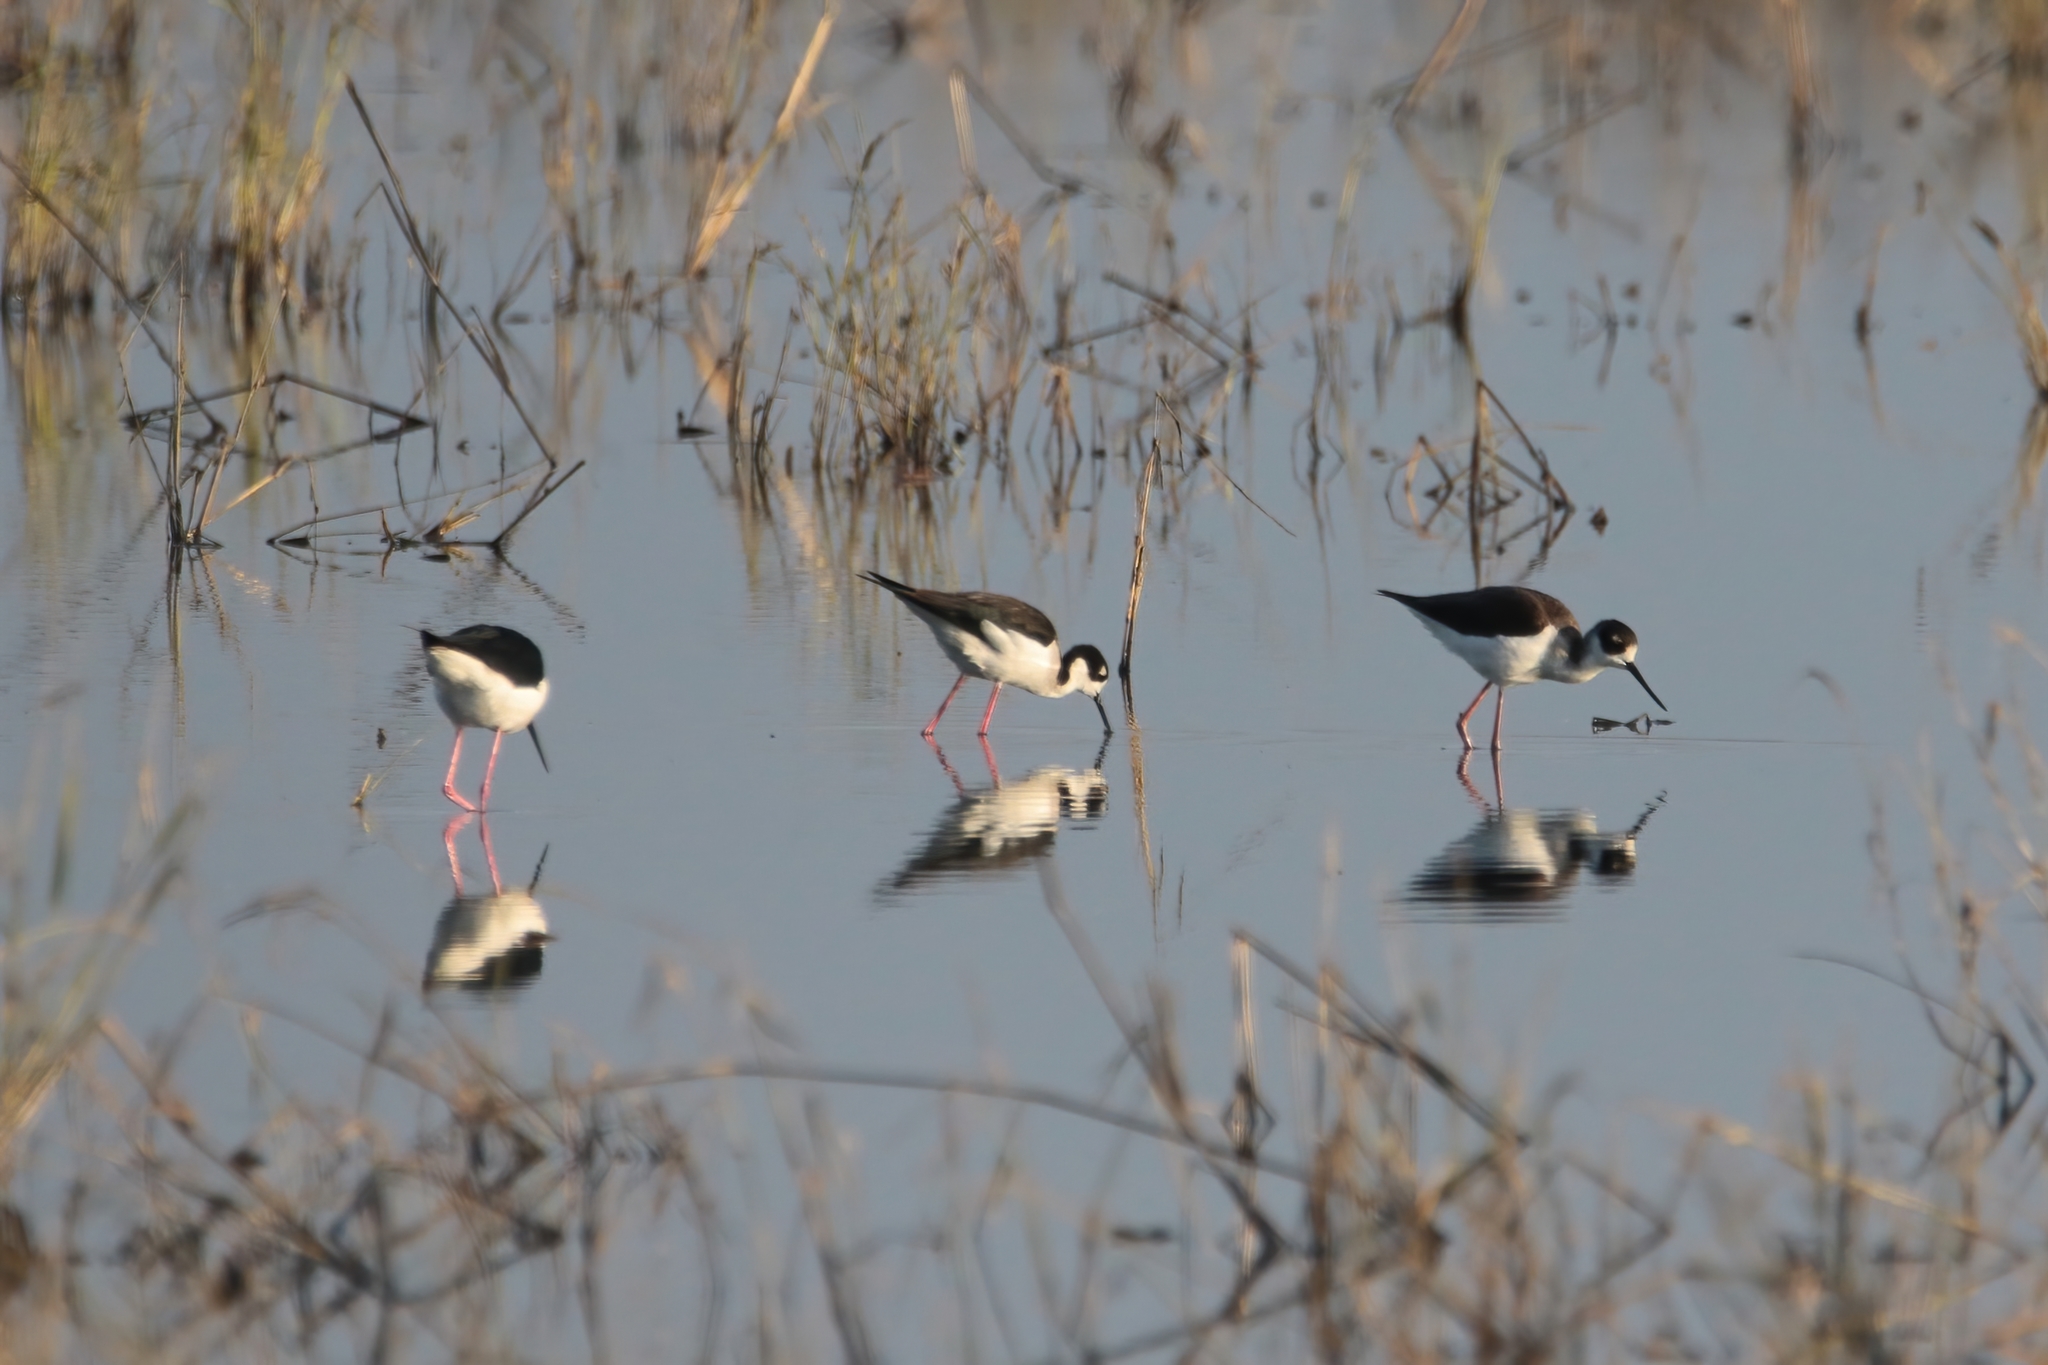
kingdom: Animalia
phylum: Chordata
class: Aves
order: Charadriiformes
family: Recurvirostridae
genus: Himantopus
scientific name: Himantopus mexicanus
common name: Black-necked stilt
